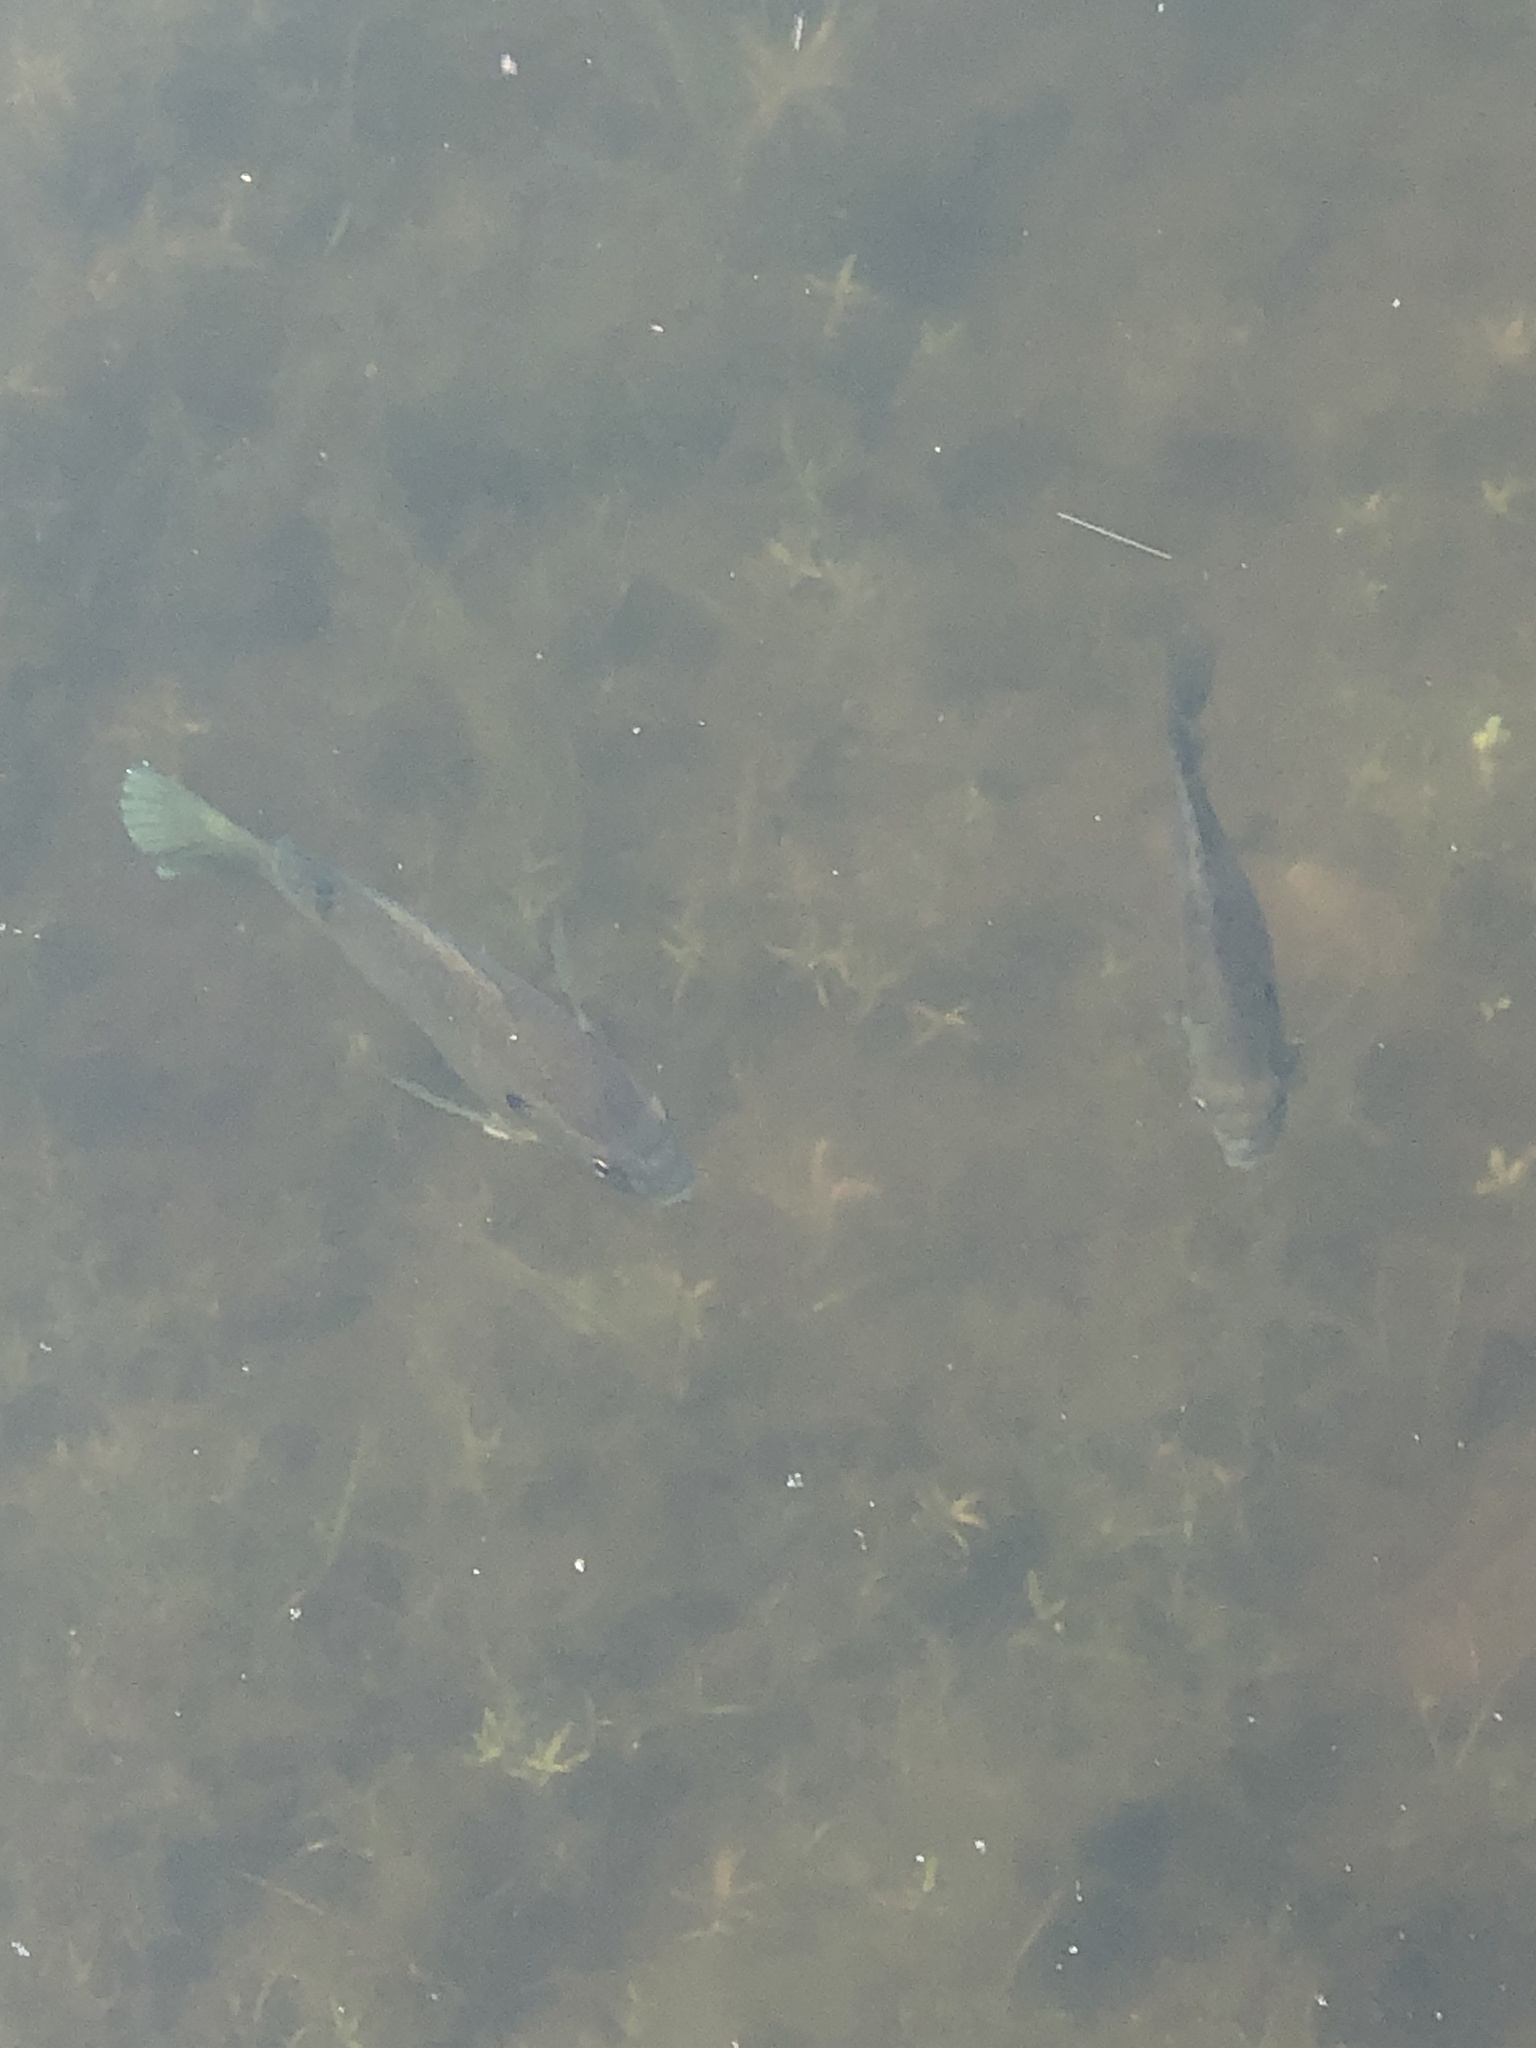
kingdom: Animalia
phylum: Chordata
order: Perciformes
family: Centrarchidae
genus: Lepomis
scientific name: Lepomis macrochirus
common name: Bluegill
